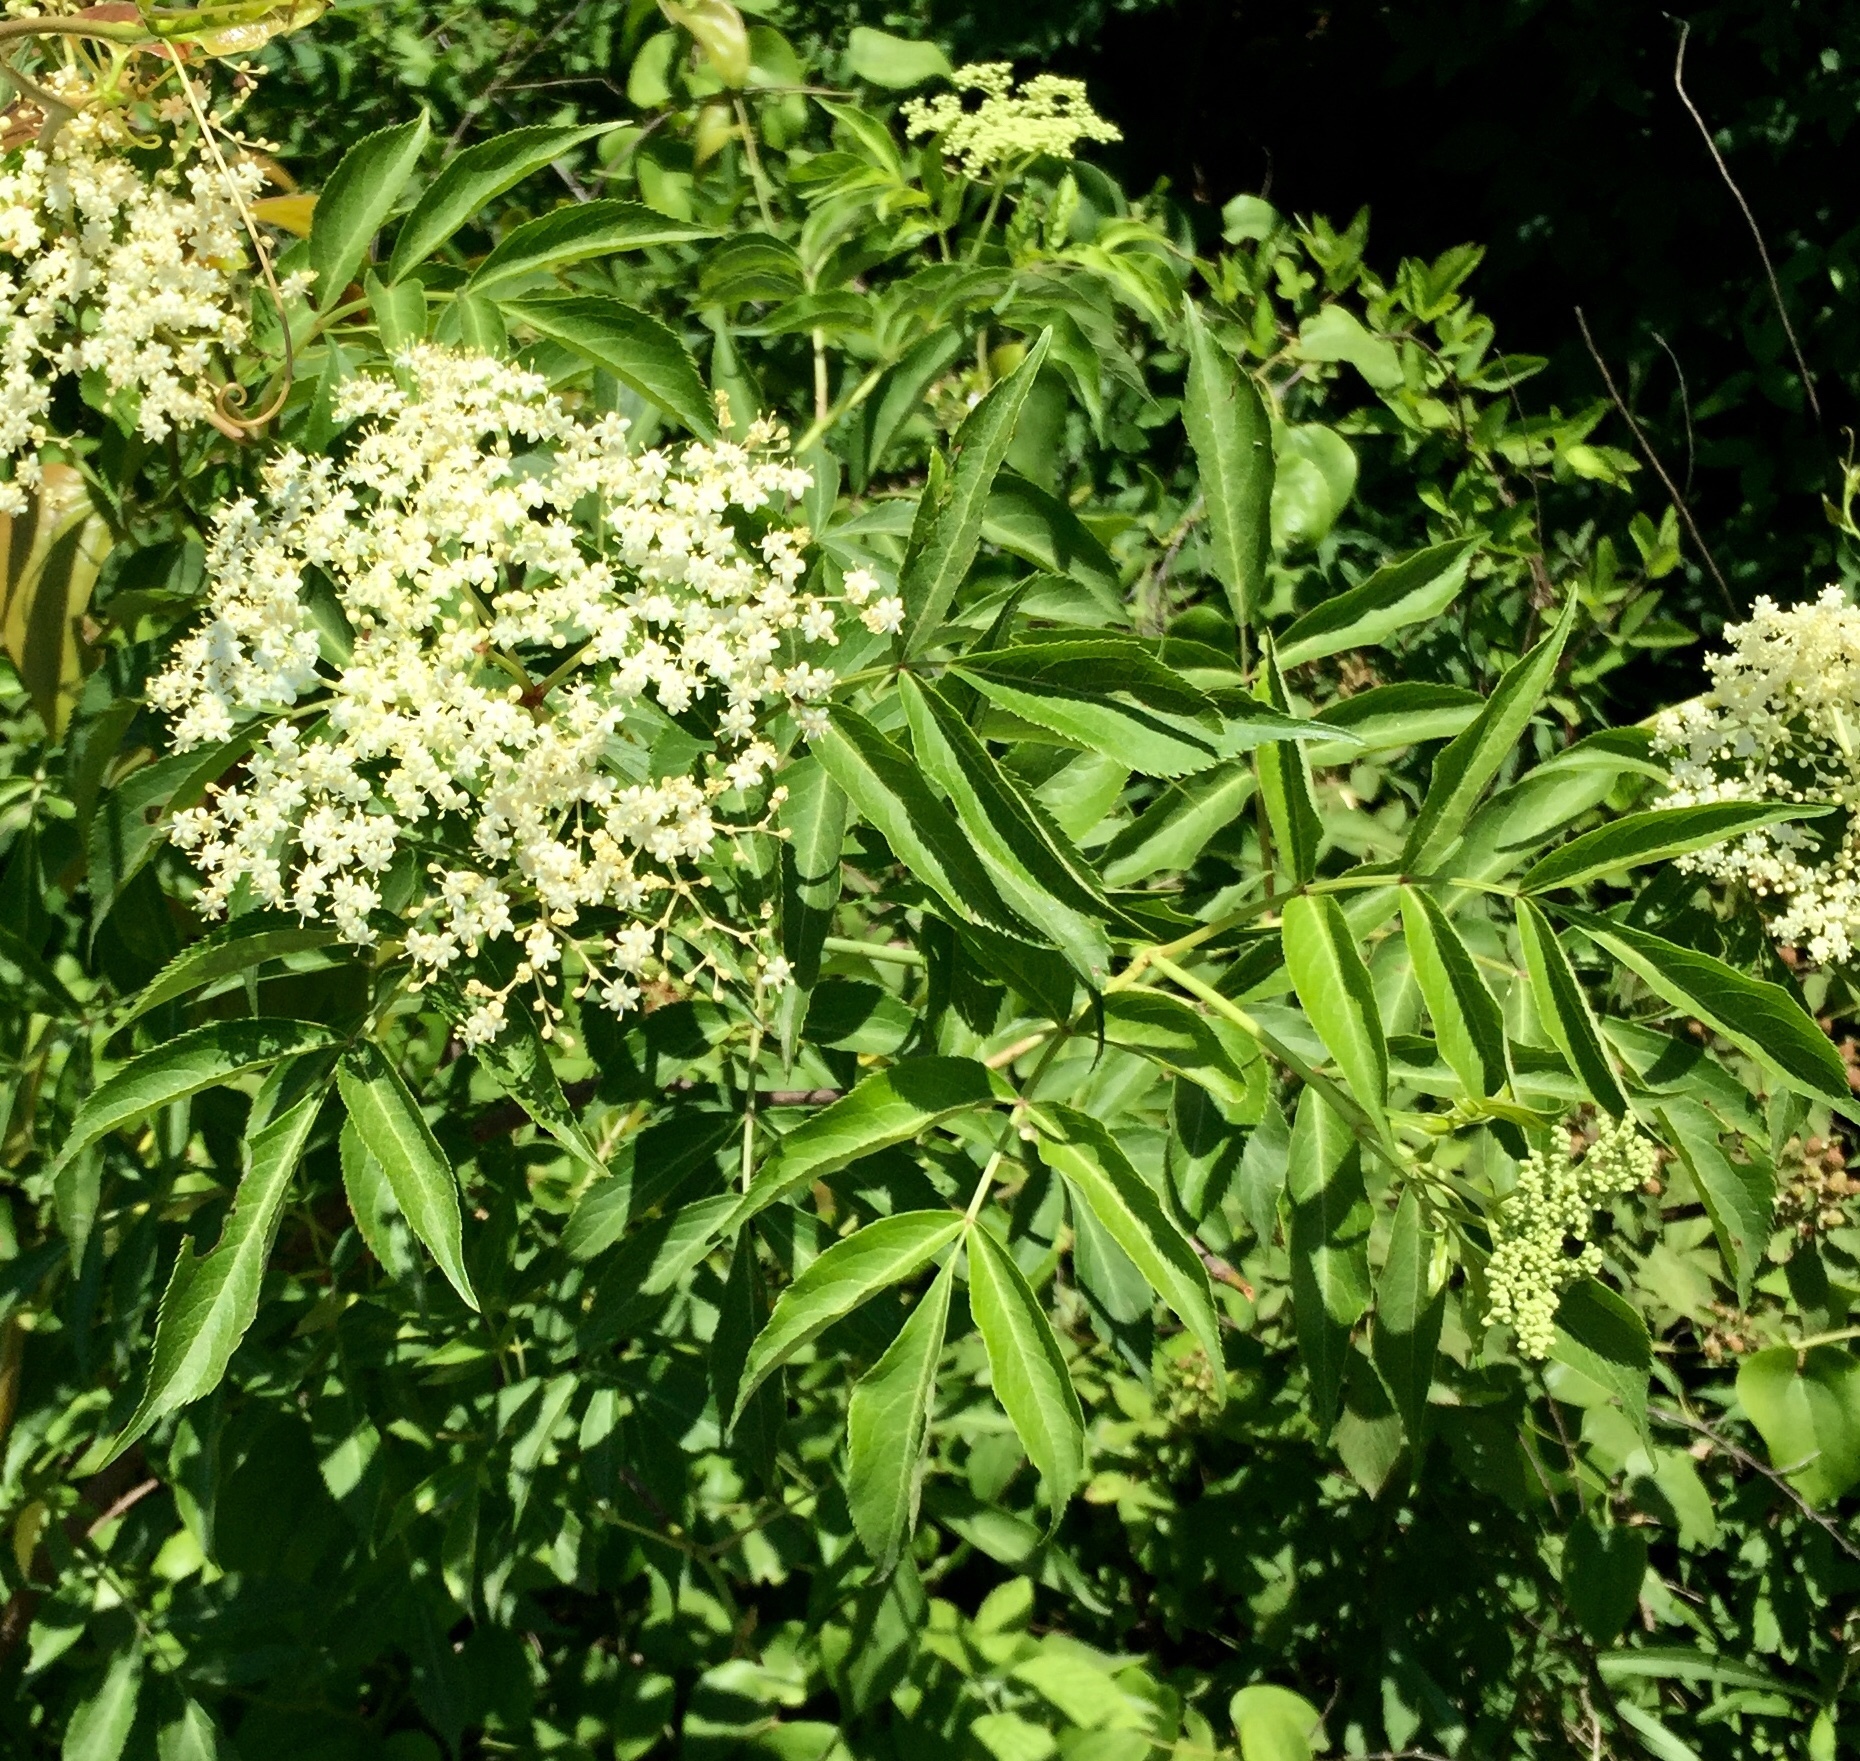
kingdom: Plantae
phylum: Tracheophyta
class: Magnoliopsida
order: Dipsacales
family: Viburnaceae
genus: Sambucus
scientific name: Sambucus canadensis
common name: American elder
